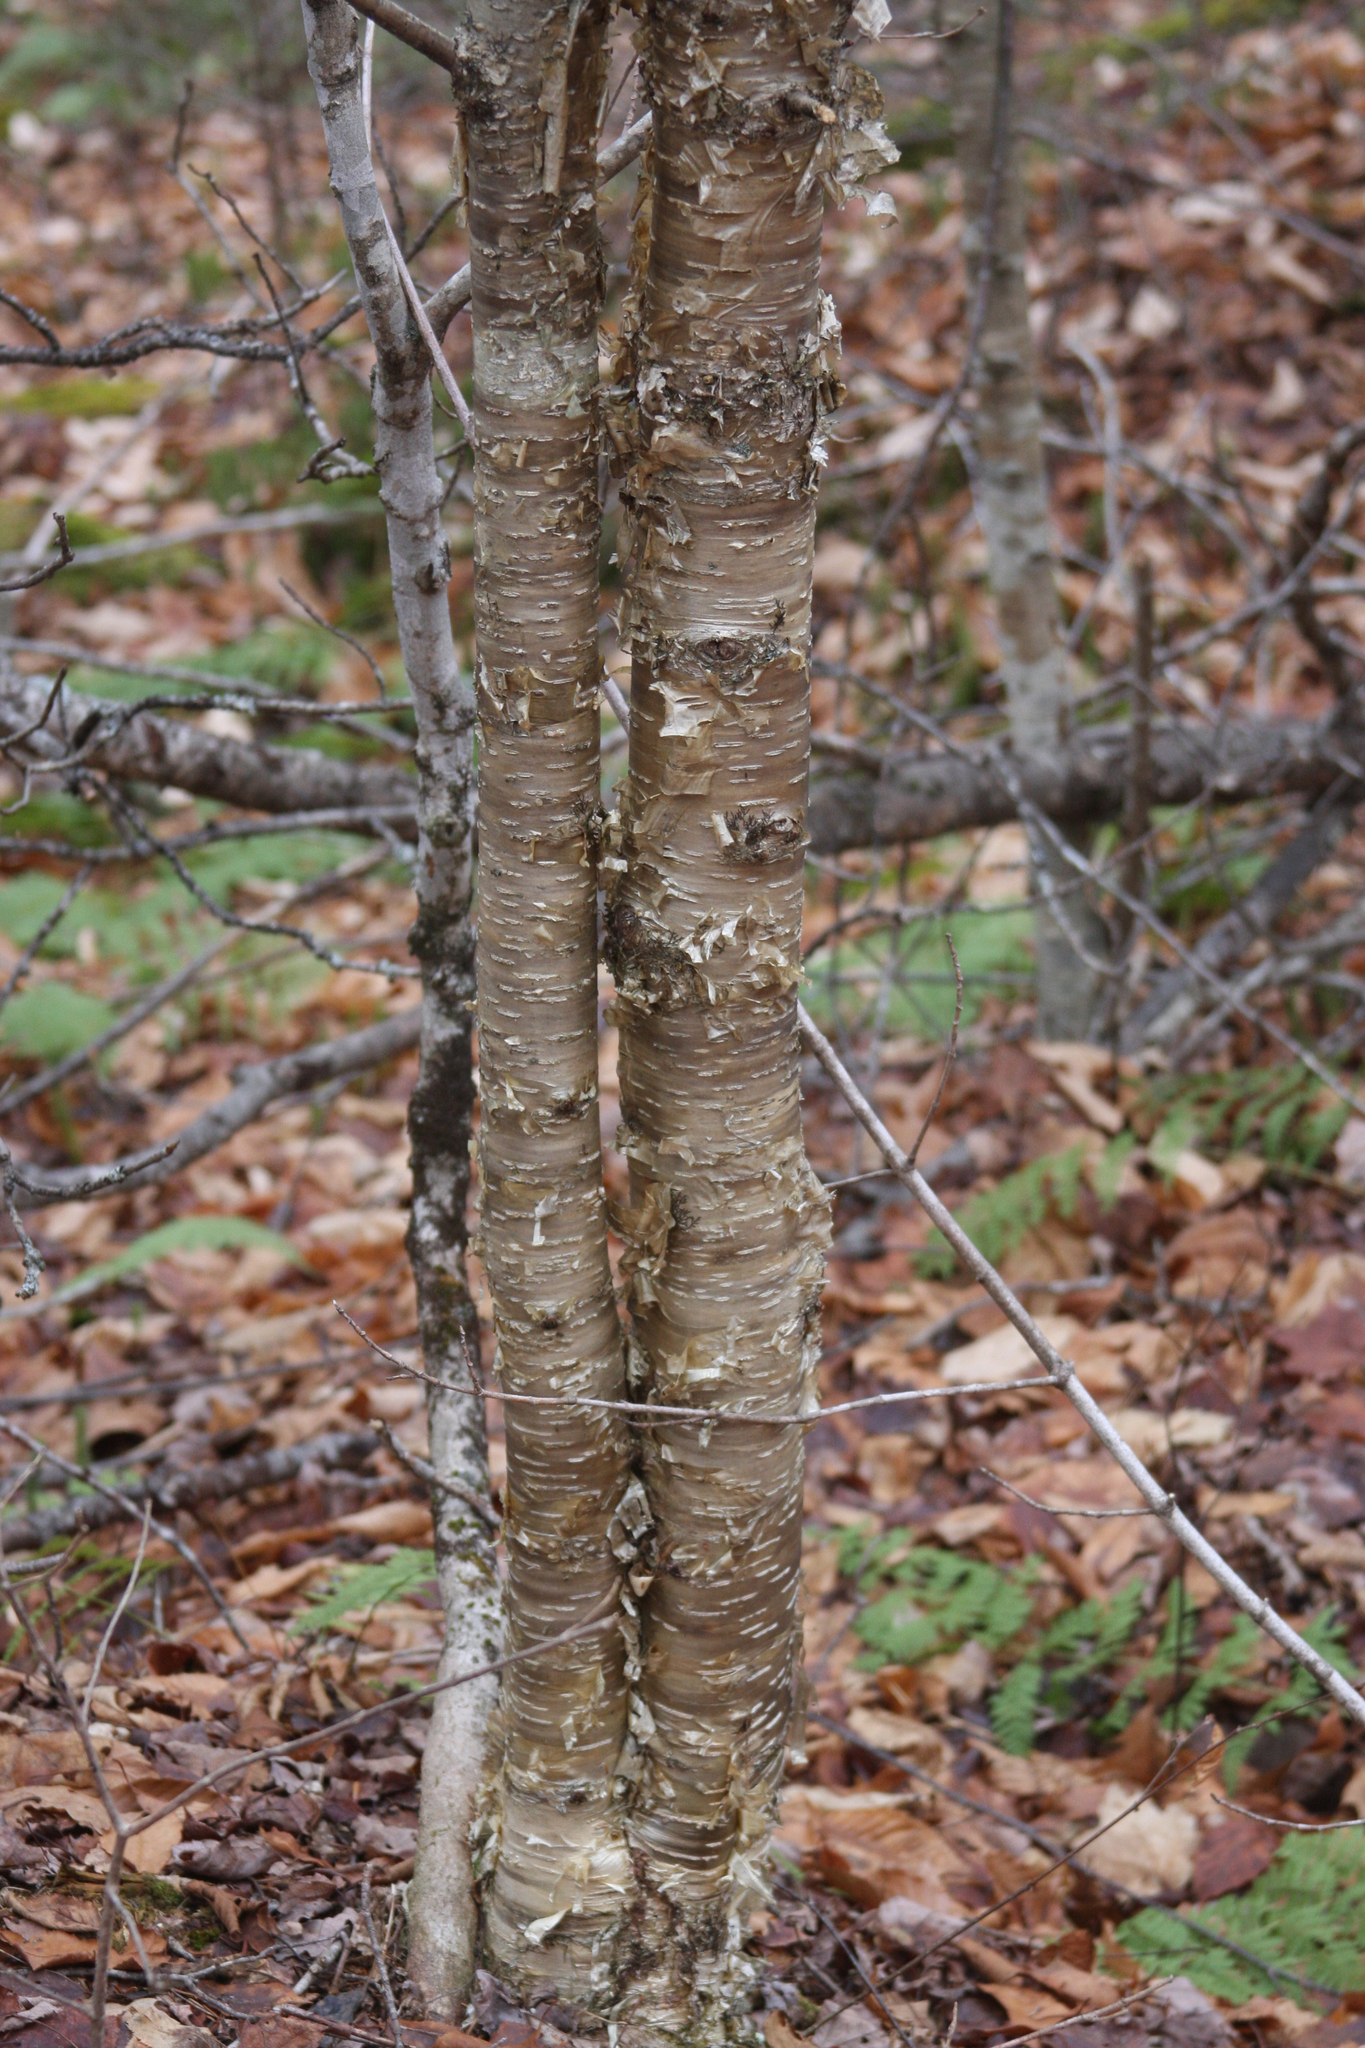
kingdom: Plantae
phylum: Tracheophyta
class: Magnoliopsida
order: Fagales
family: Betulaceae
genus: Betula
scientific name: Betula alleghaniensis
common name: Yellow birch
